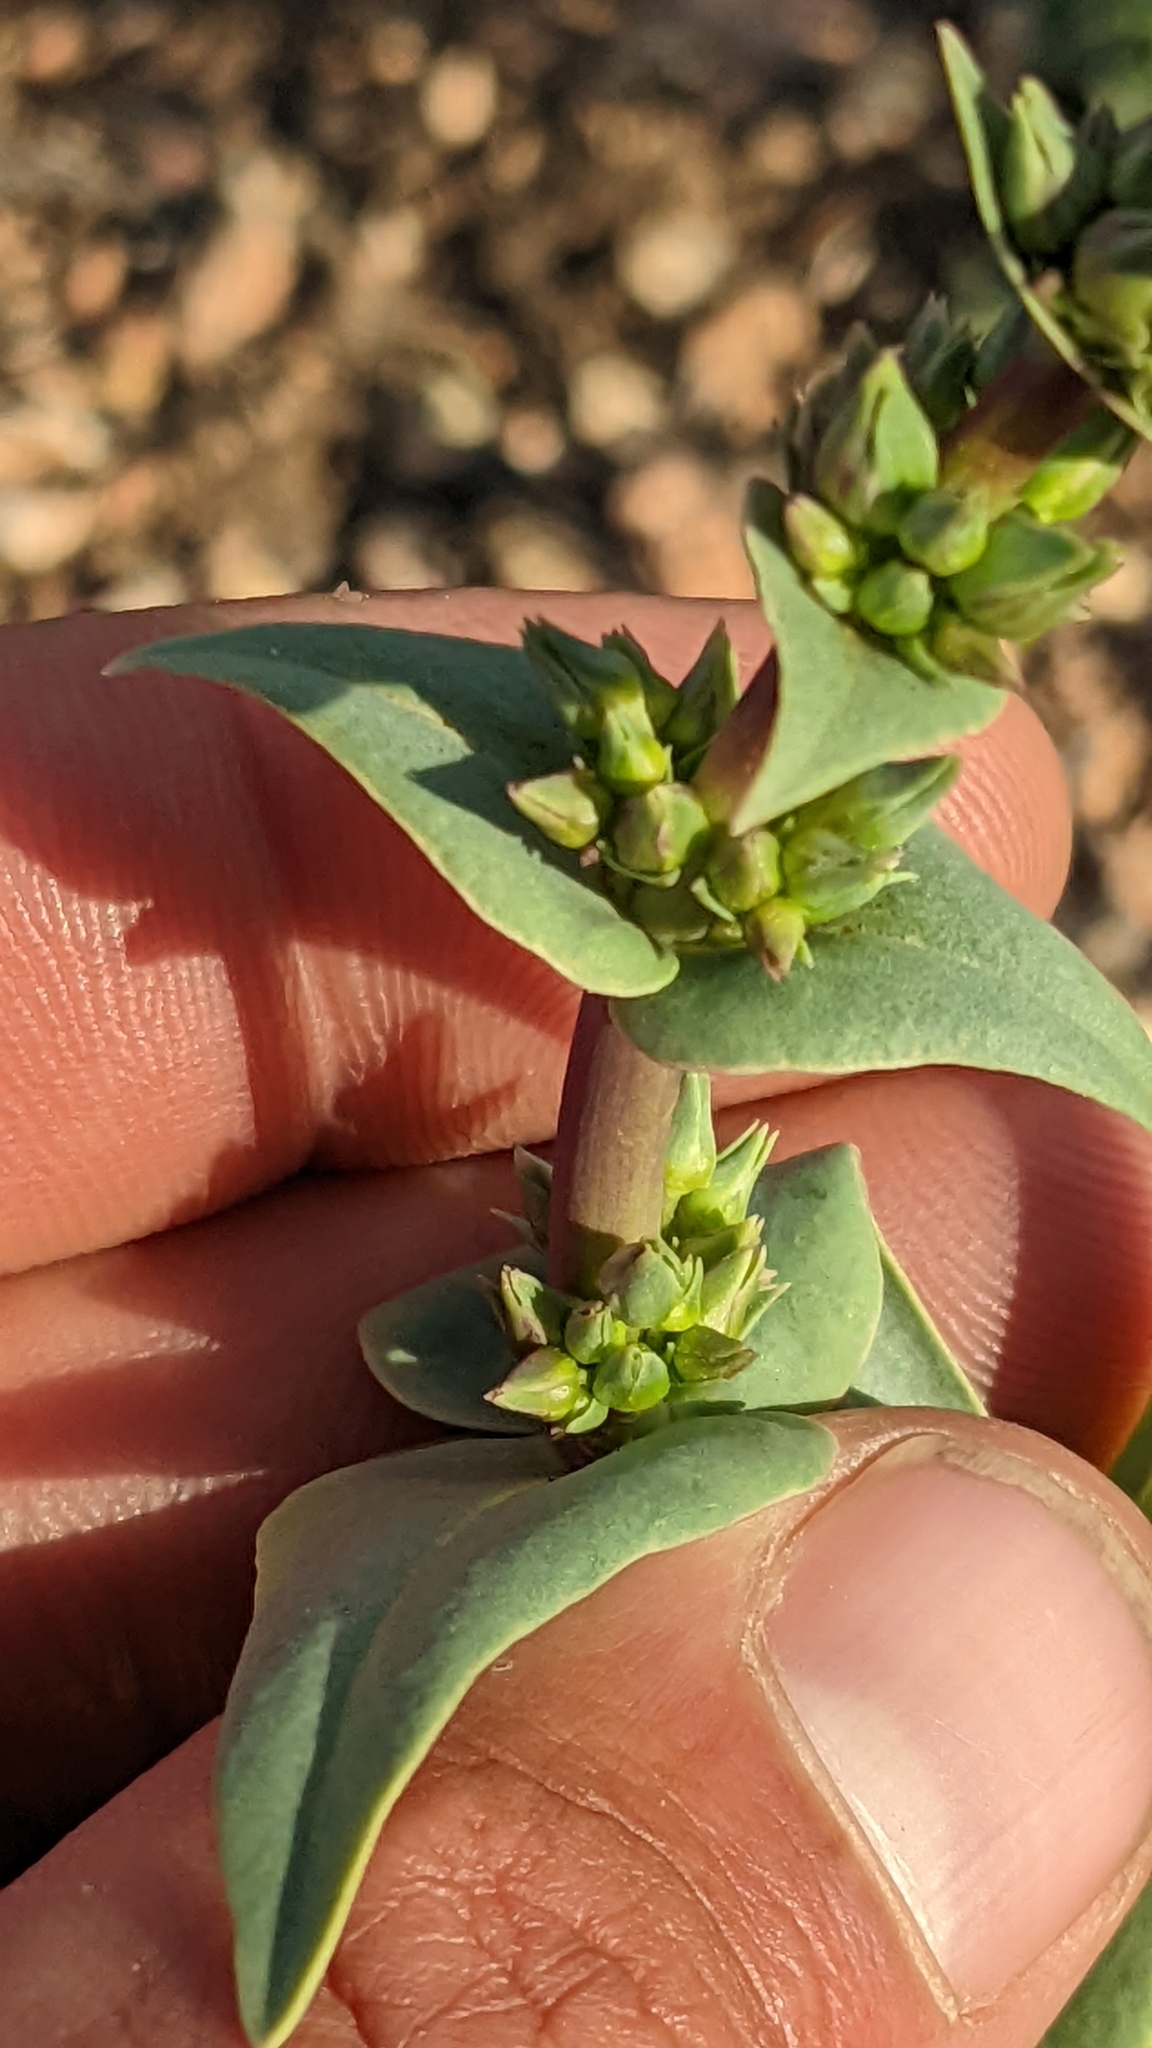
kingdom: Plantae
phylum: Tracheophyta
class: Magnoliopsida
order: Lamiales
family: Plantaginaceae
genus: Penstemon
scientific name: Penstemon pachyphyllus
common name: Thick-leaf penstemon
